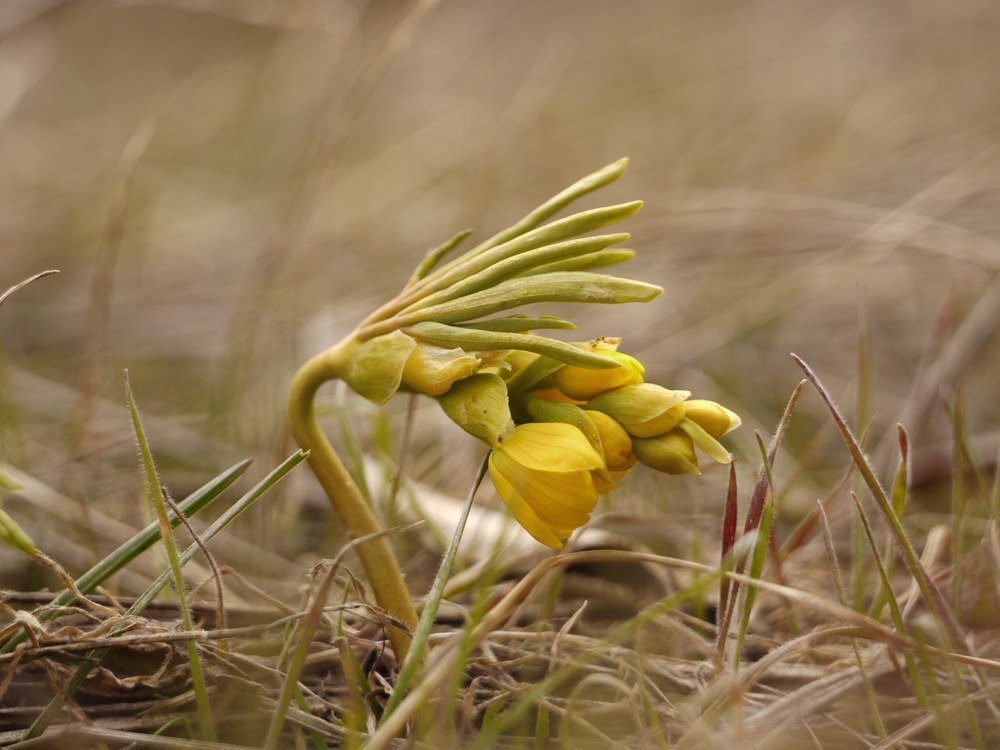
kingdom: Plantae
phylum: Tracheophyta
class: Magnoliopsida
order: Ranunculales
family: Berberidaceae
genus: Gymnospermium
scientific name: Gymnospermium odessanum
